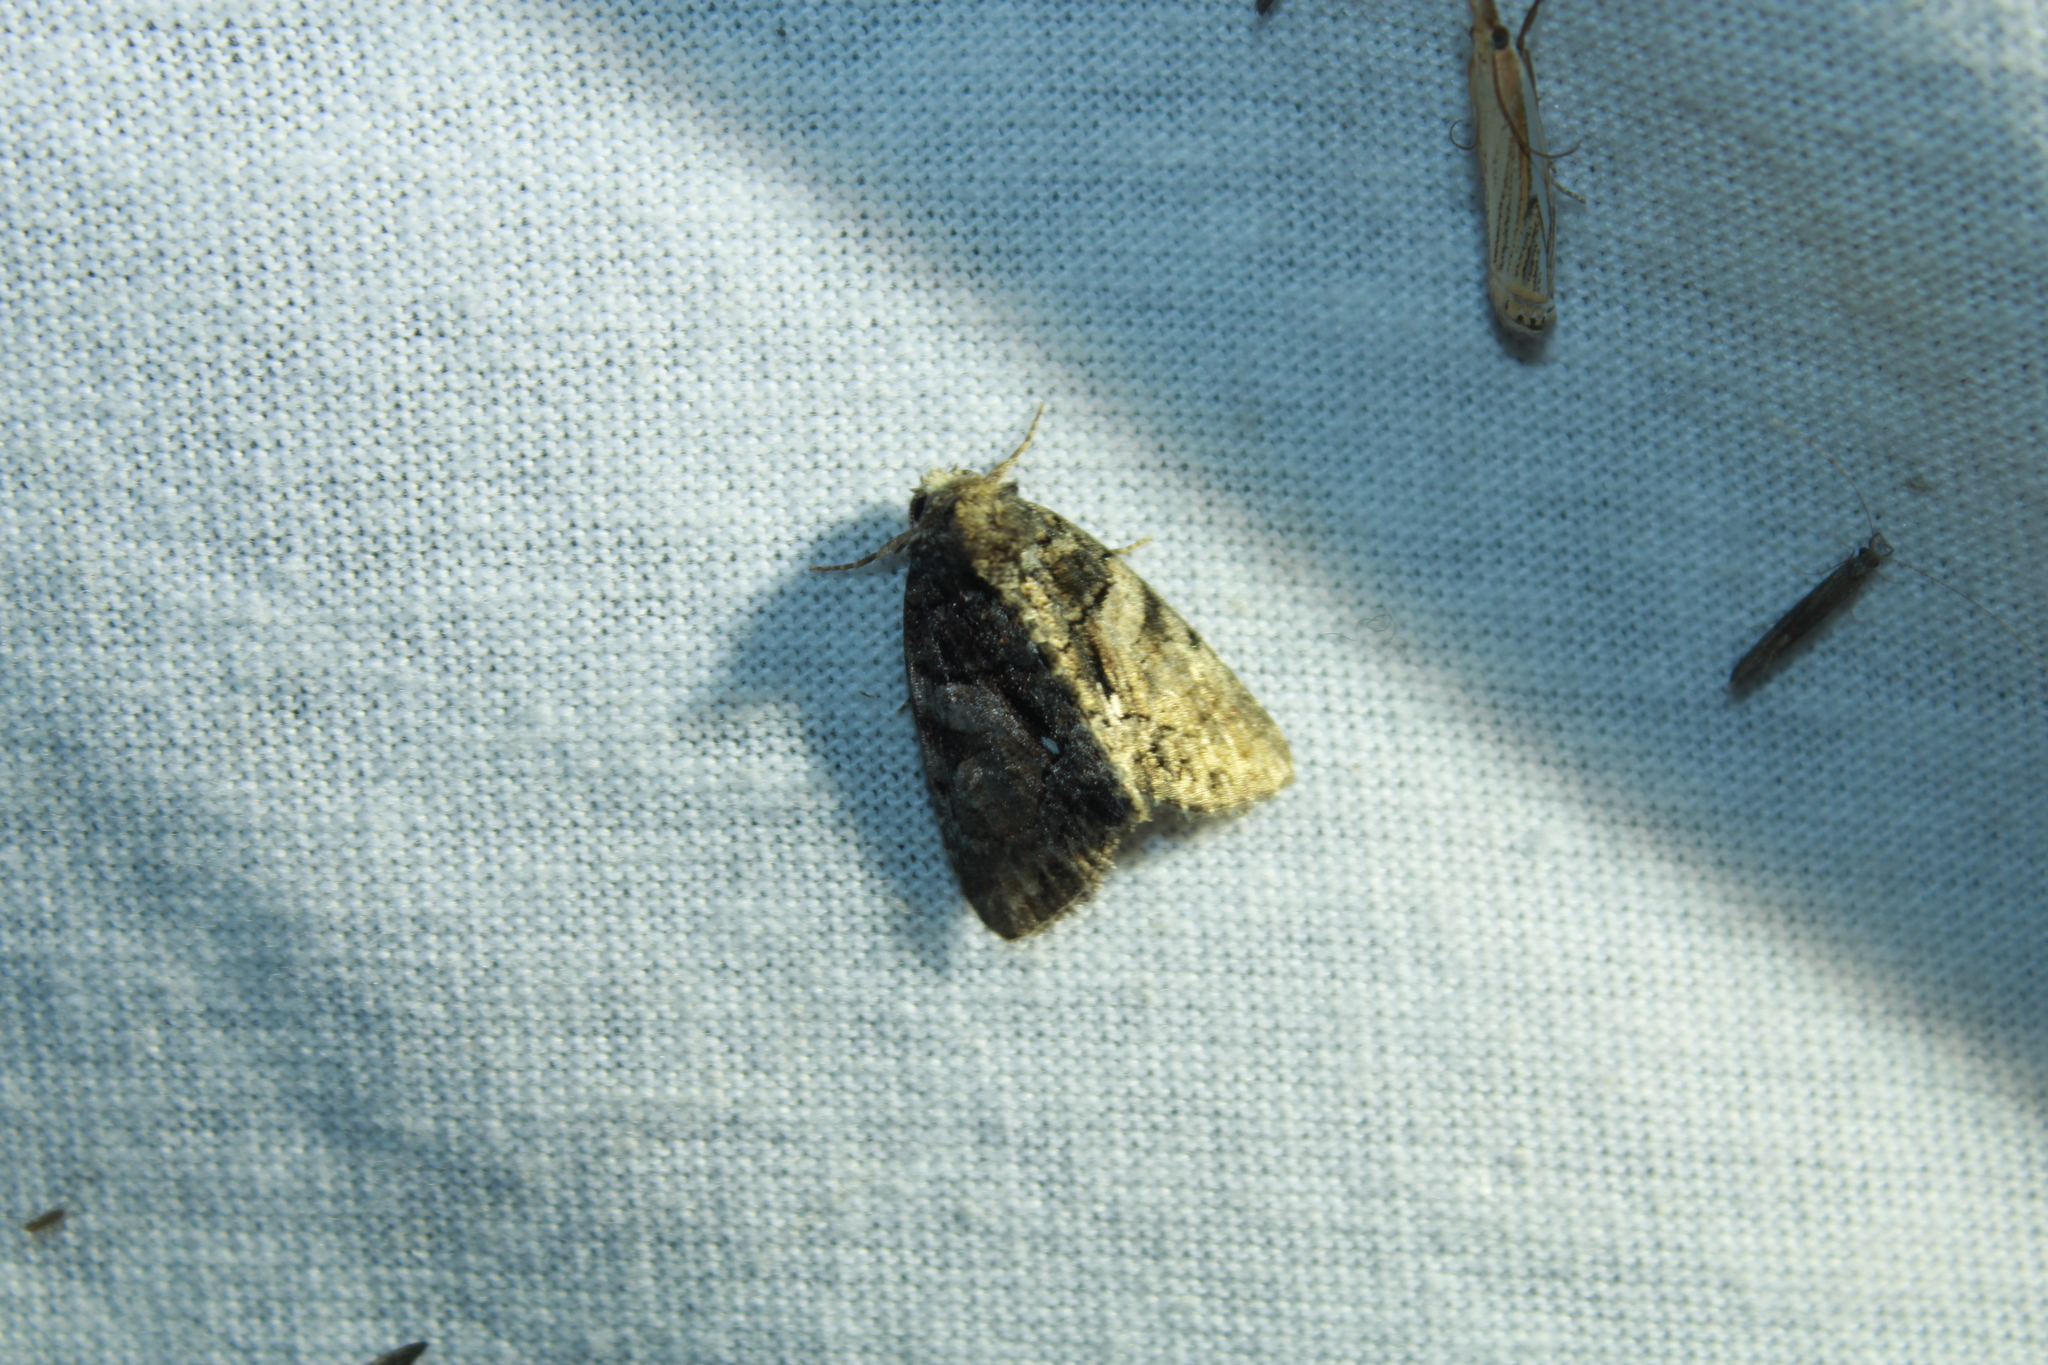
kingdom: Animalia
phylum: Arthropoda
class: Insecta
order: Lepidoptera
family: Noctuidae
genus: Chytonix
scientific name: Chytonix palliatricula
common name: Cloaked marvel
